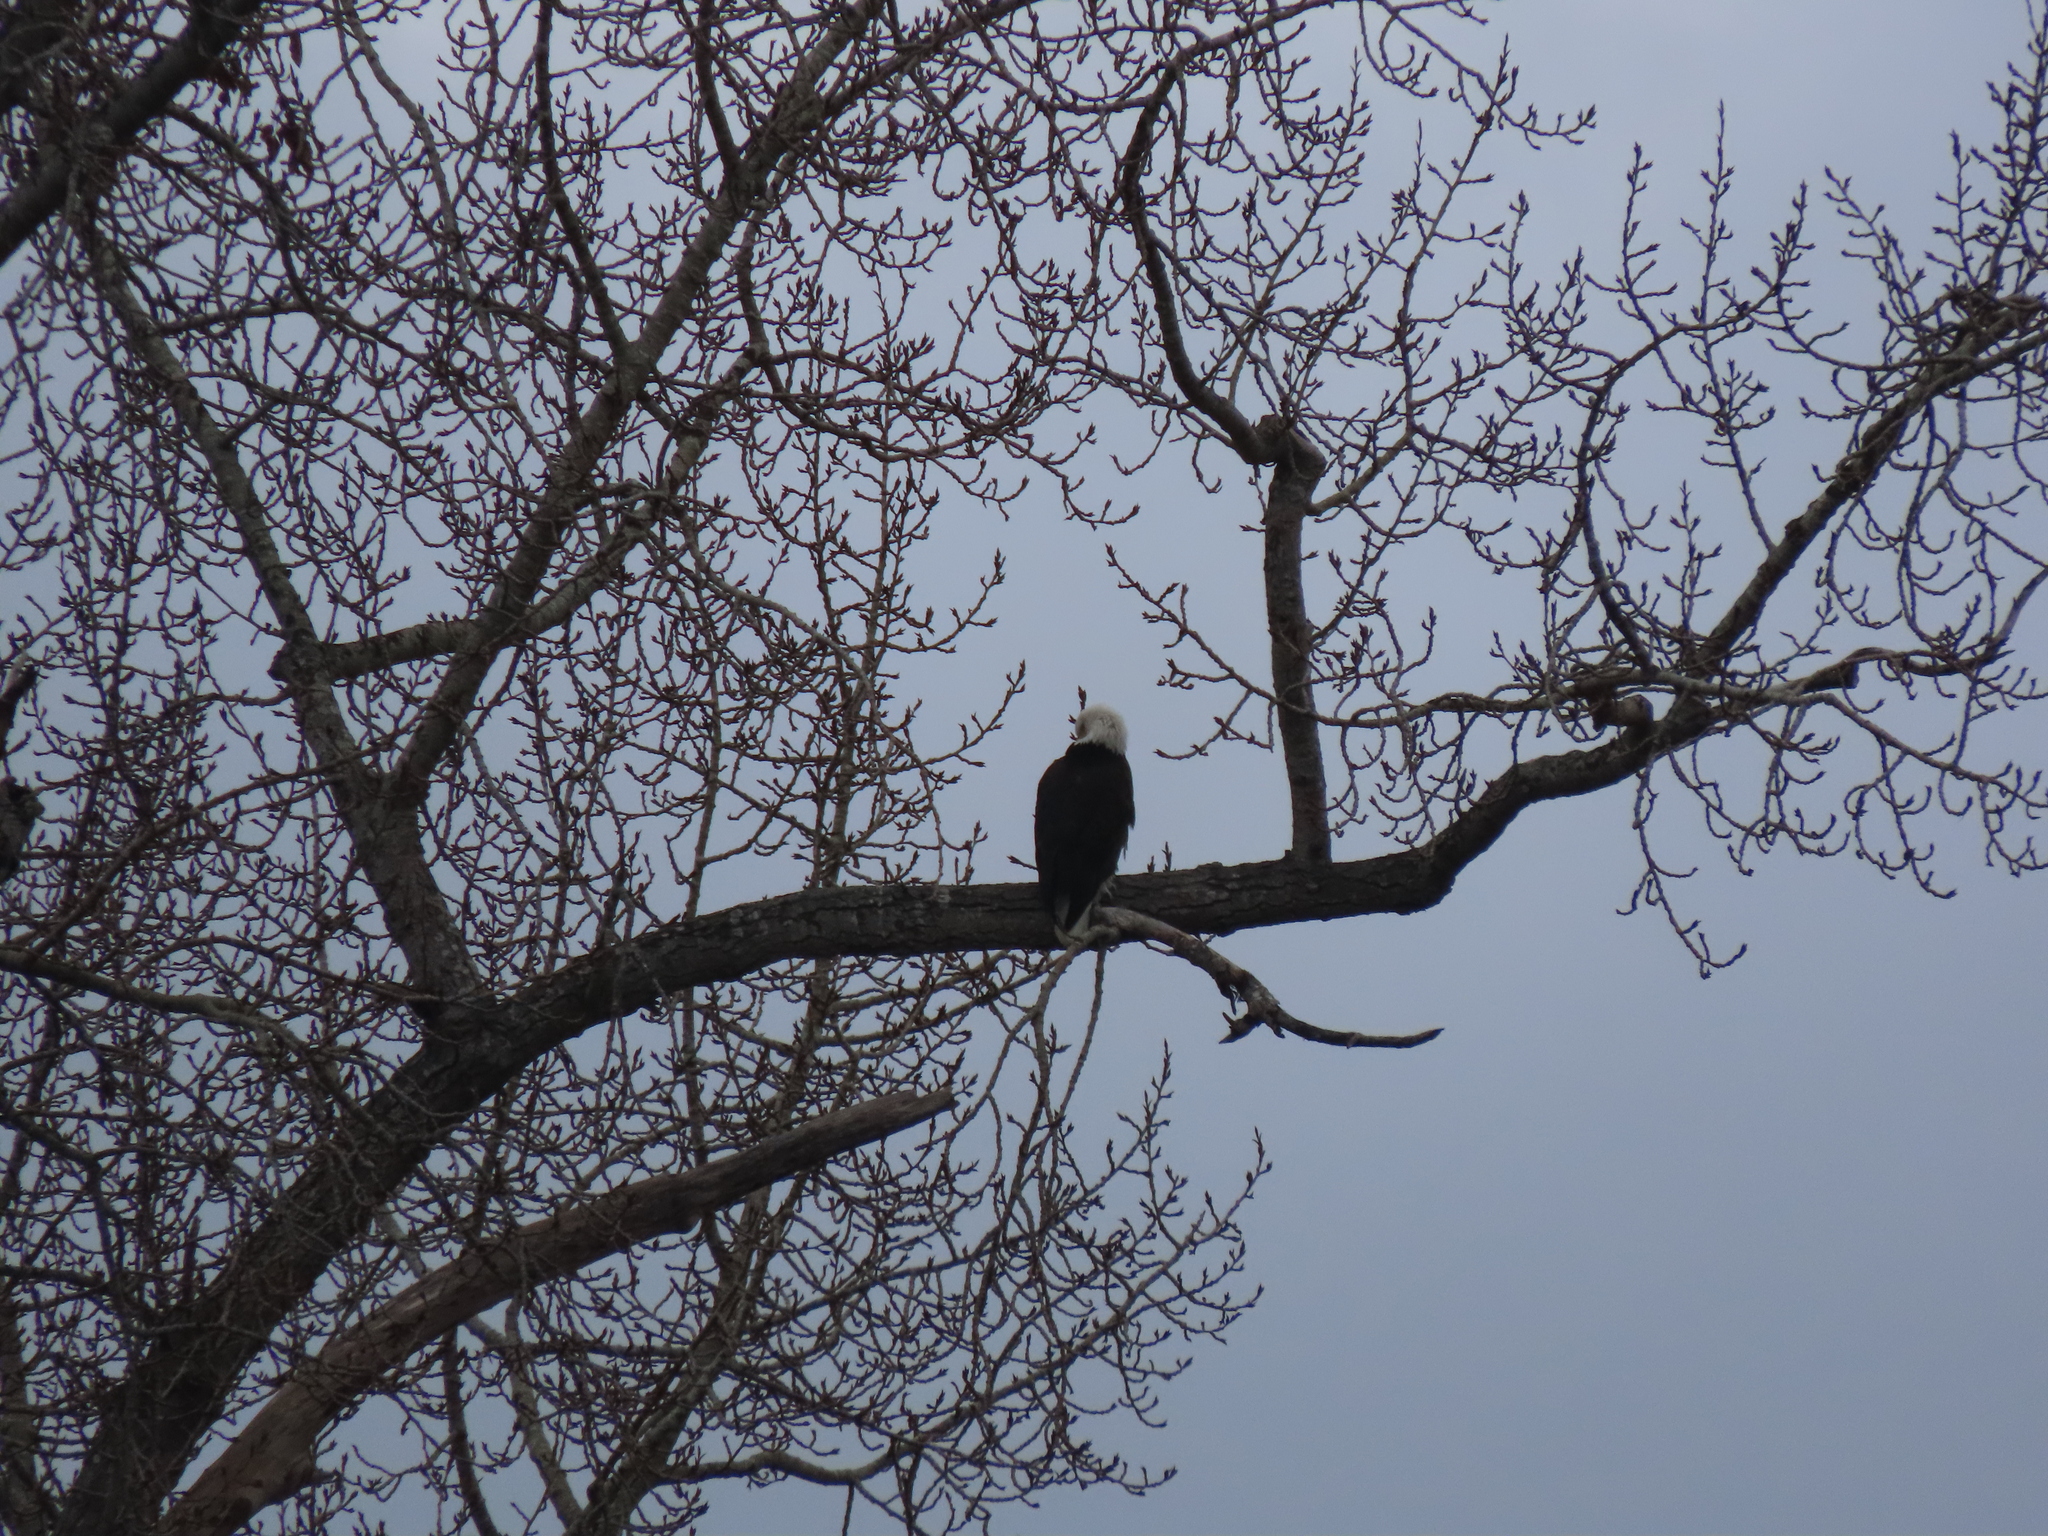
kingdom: Animalia
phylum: Chordata
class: Aves
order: Accipitriformes
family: Accipitridae
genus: Haliaeetus
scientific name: Haliaeetus leucocephalus
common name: Bald eagle
